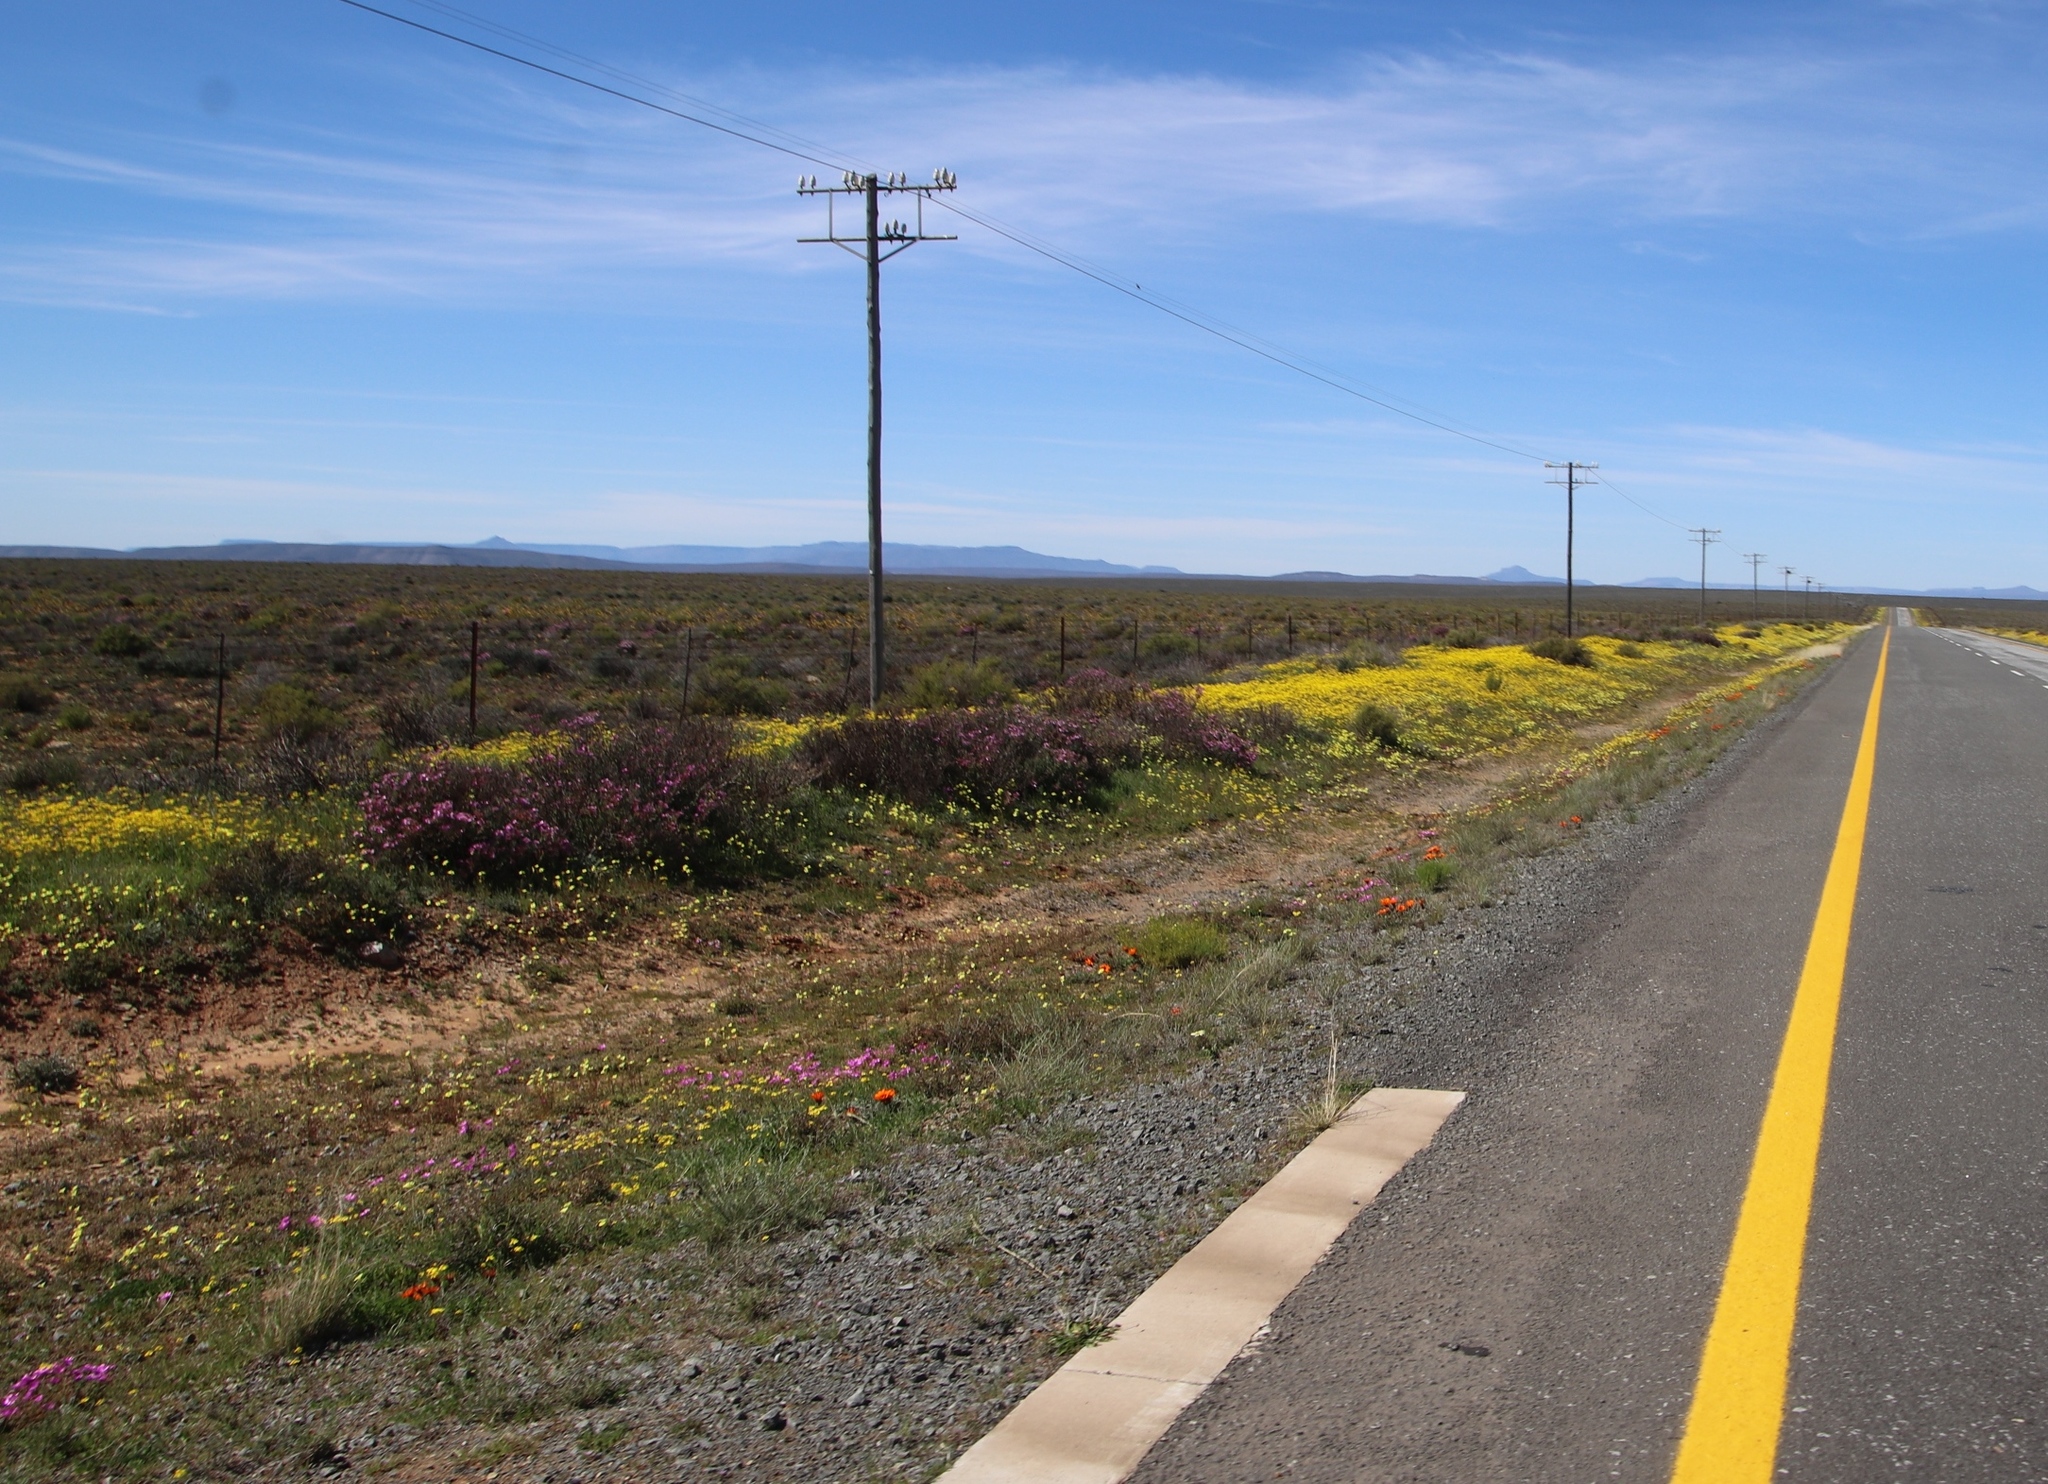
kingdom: Plantae
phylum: Tracheophyta
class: Magnoliopsida
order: Asterales
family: Asteraceae
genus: Senecio
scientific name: Senecio abruptus
